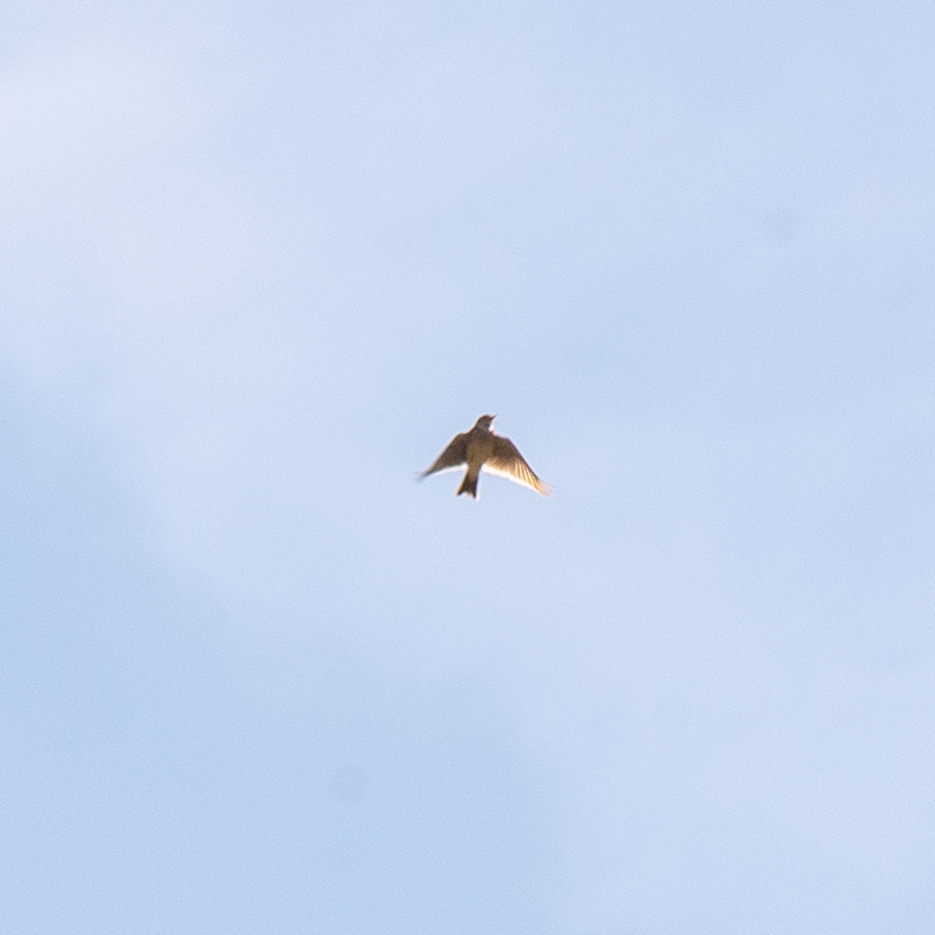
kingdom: Animalia
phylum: Chordata
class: Aves
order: Passeriformes
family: Alaudidae
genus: Alauda
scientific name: Alauda arvensis
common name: Eurasian skylark
